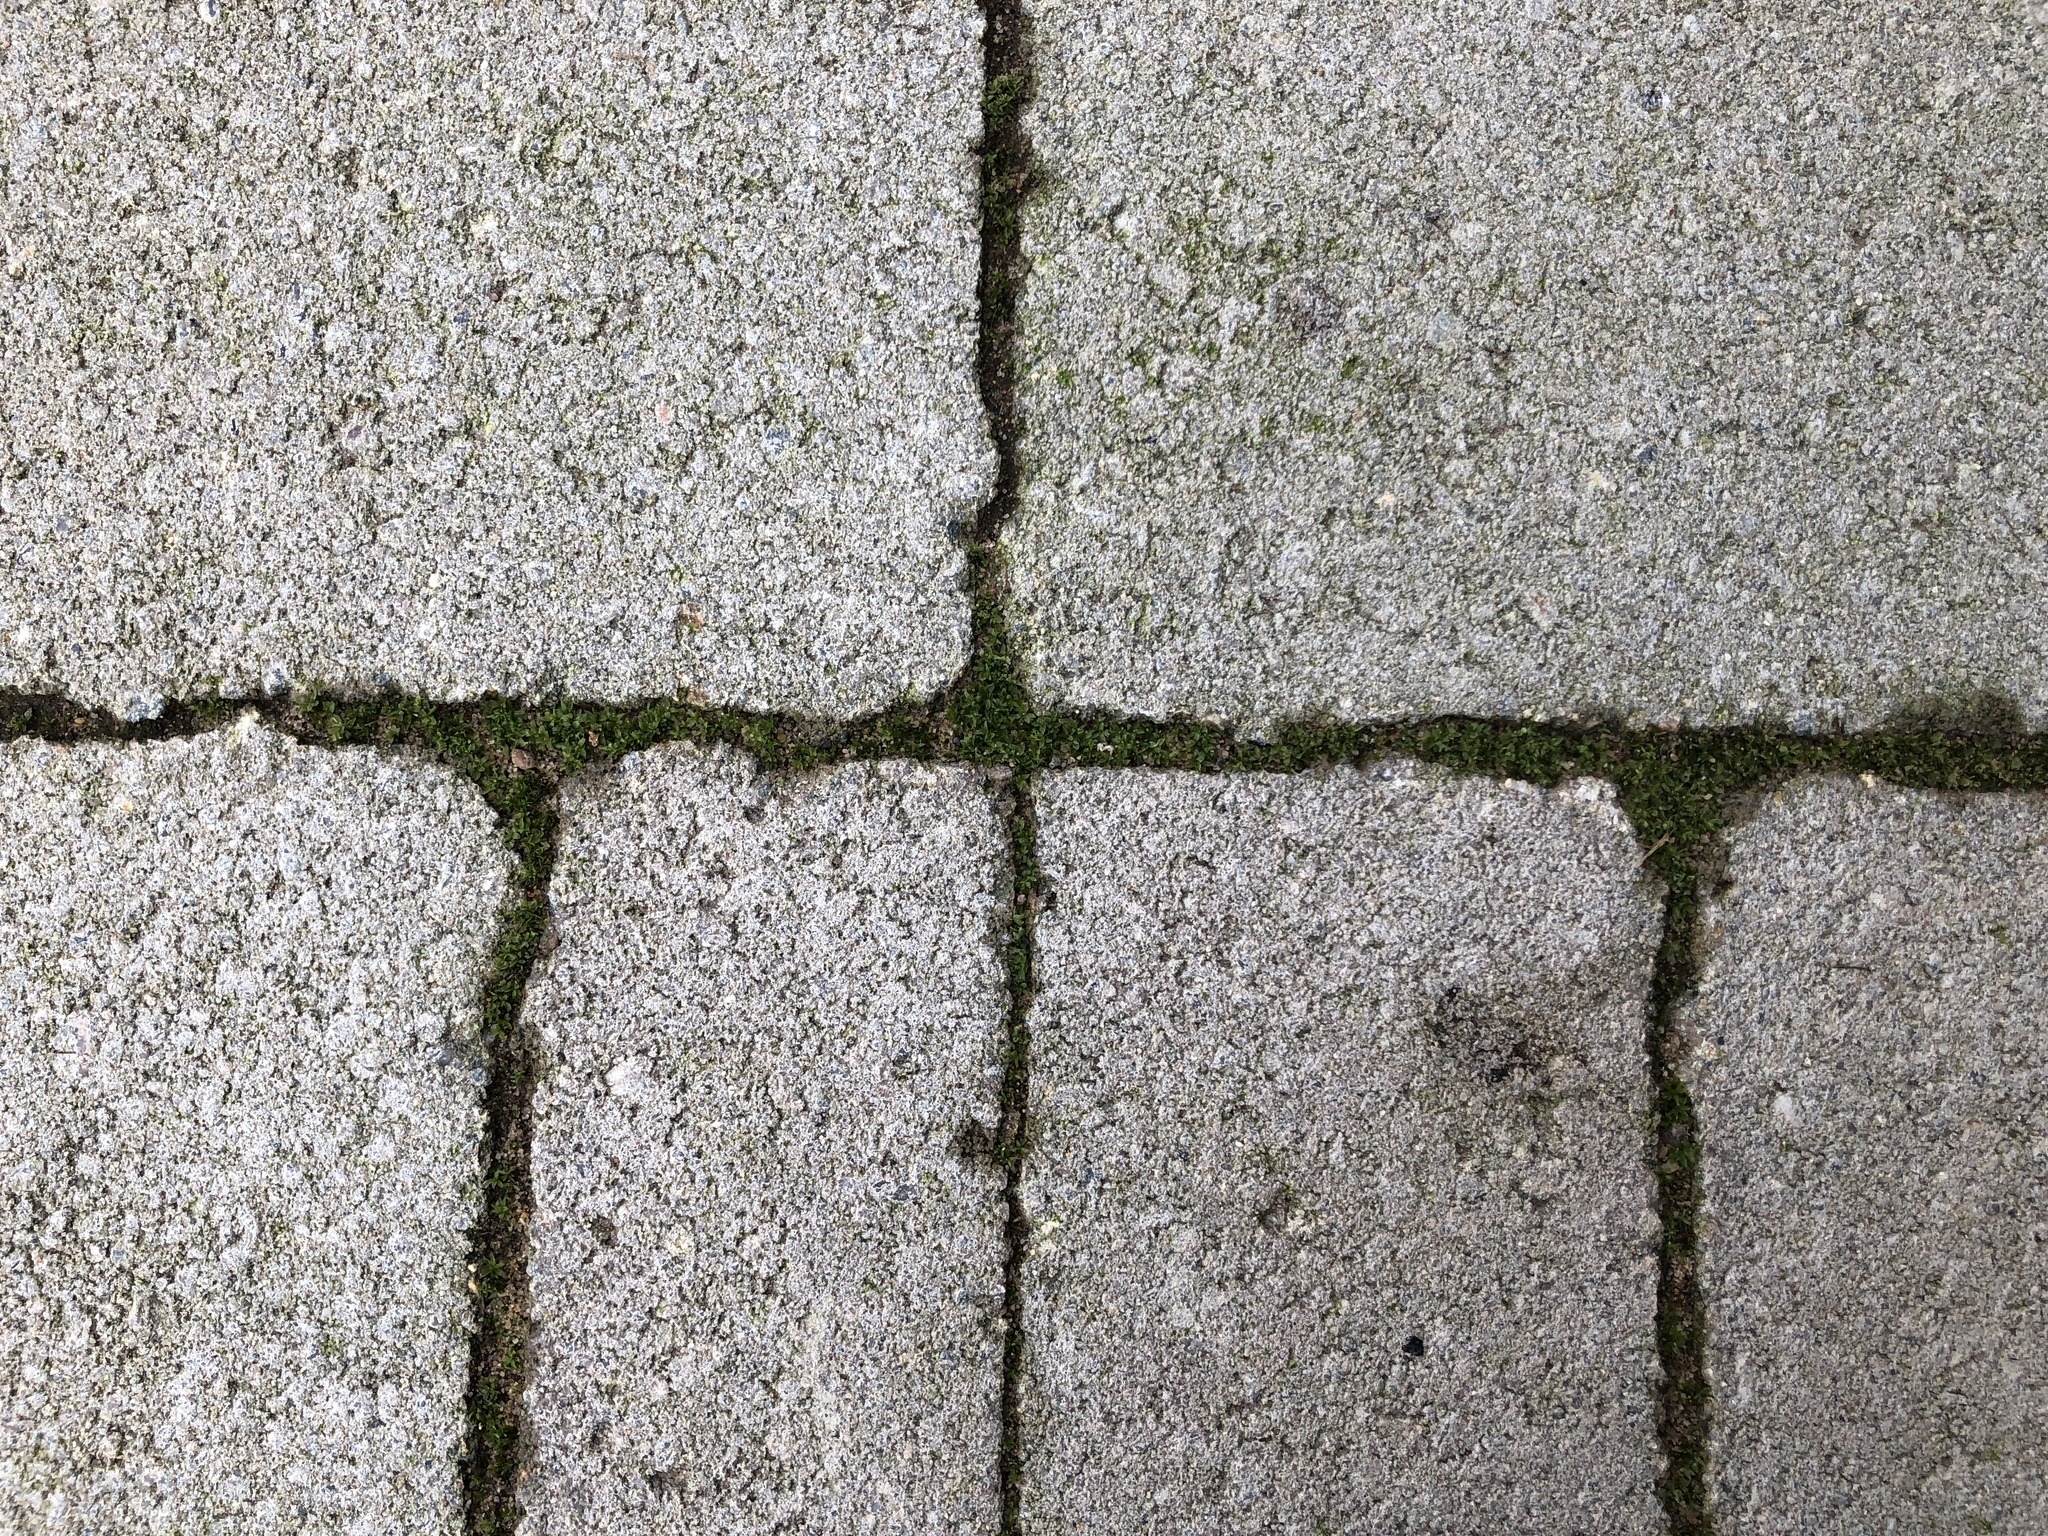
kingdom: Plantae
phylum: Bryophyta
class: Bryopsida
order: Funariales
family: Funariaceae
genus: Funaria
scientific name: Funaria hygrometrica
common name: Common cord moss
